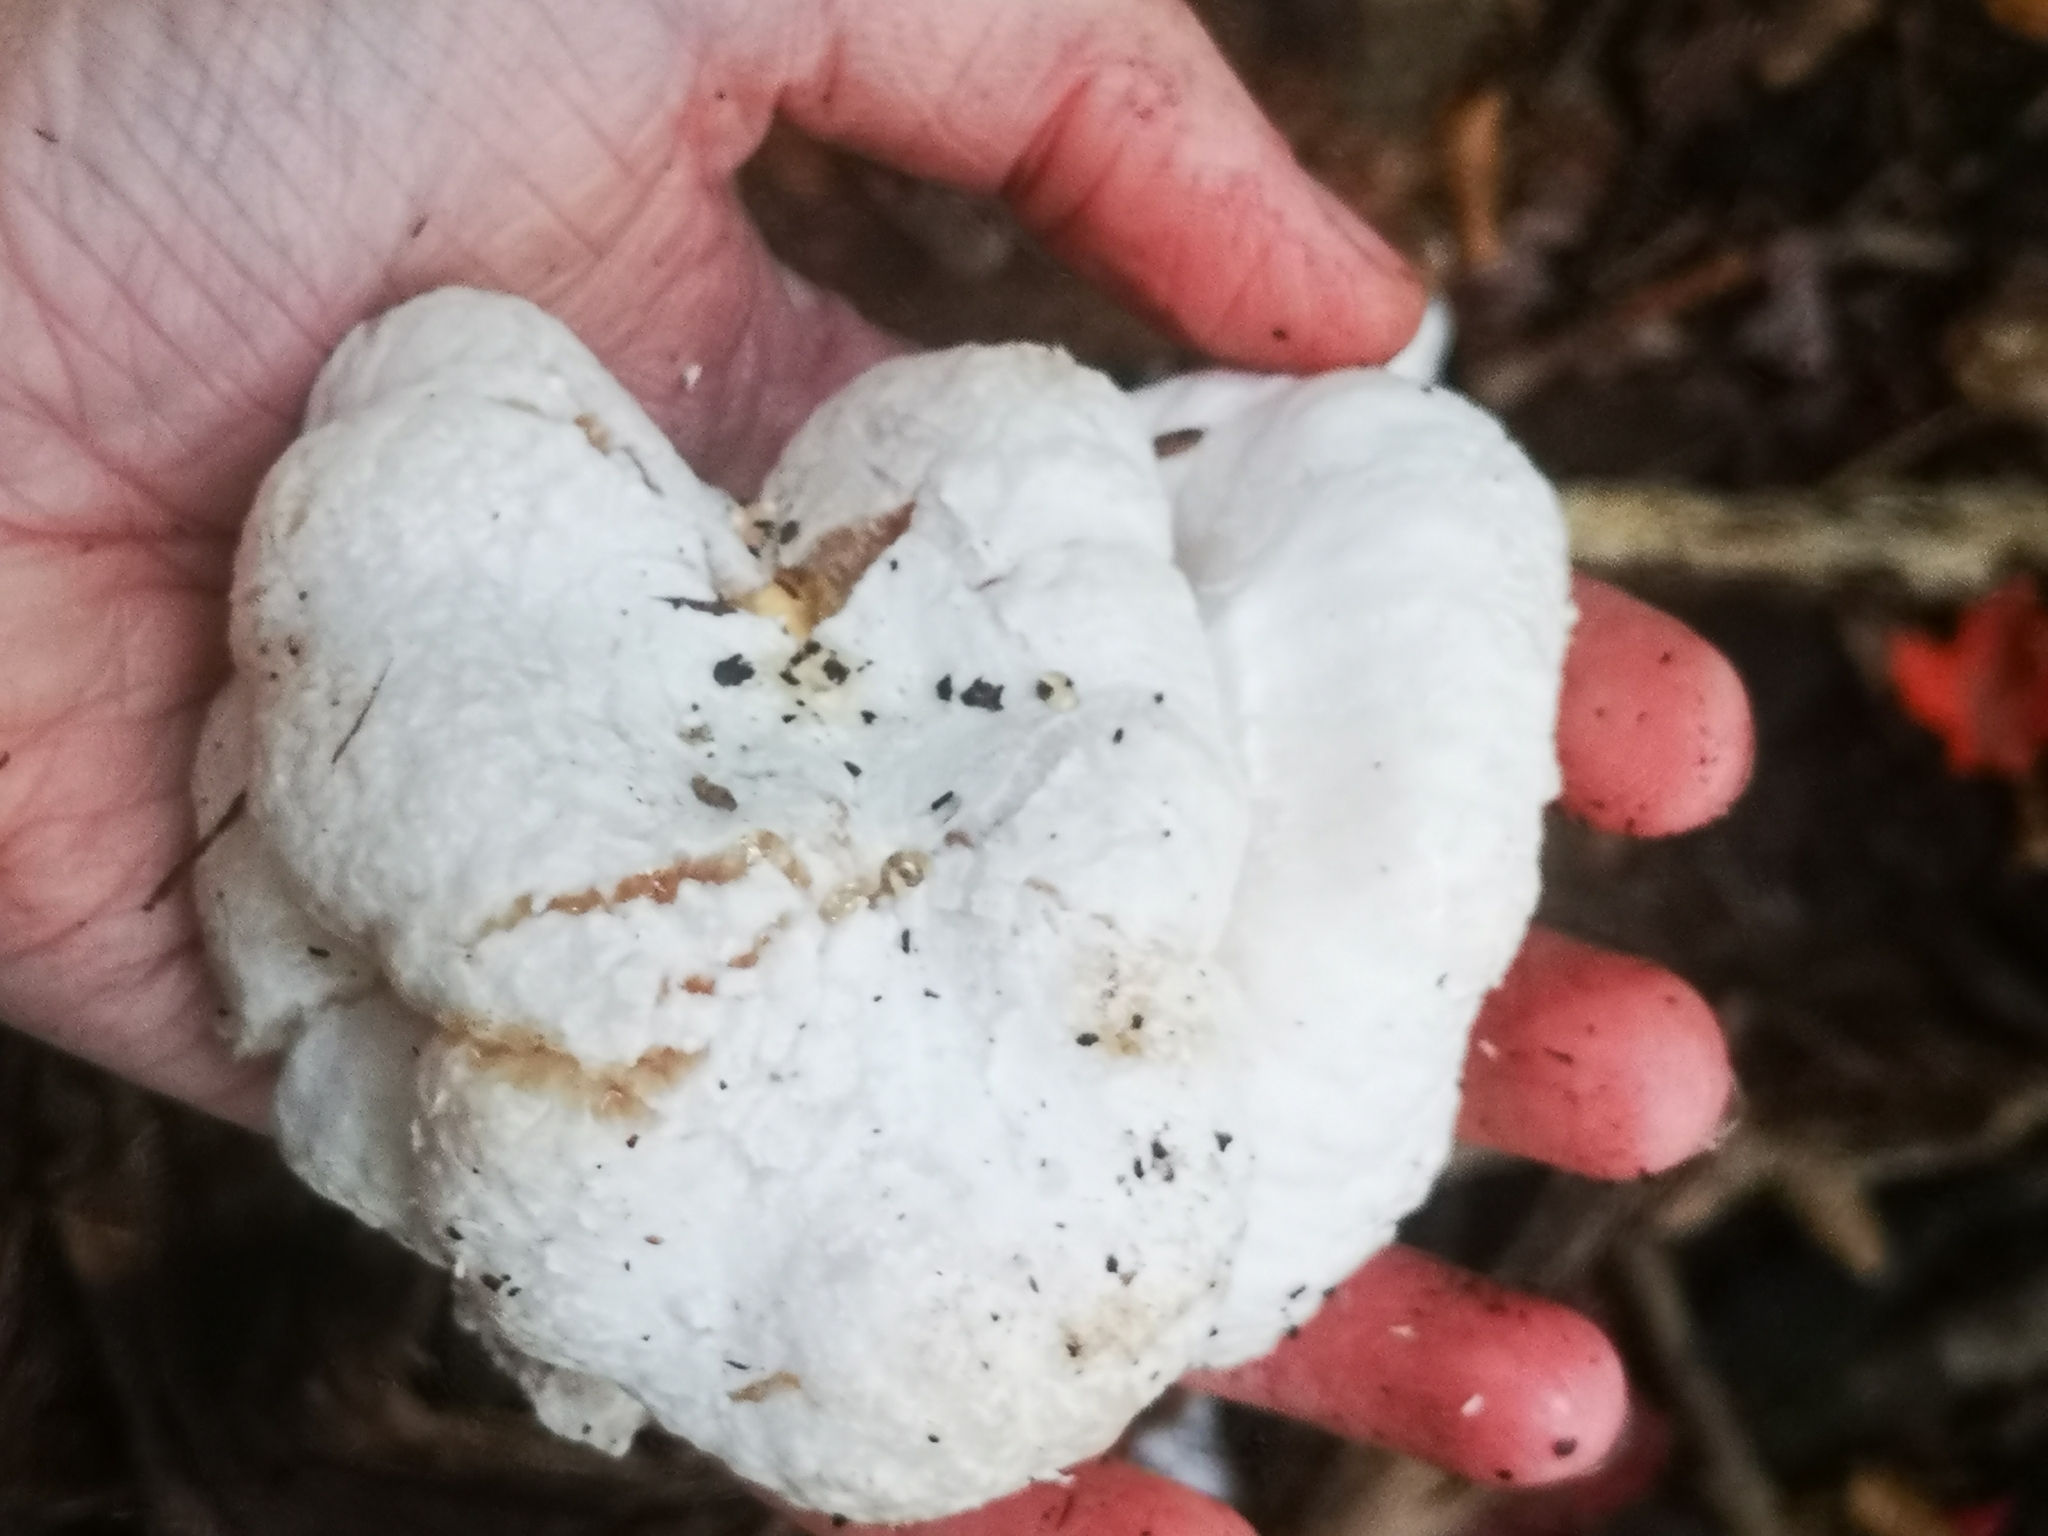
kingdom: Fungi
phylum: Basidiomycota
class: Agaricomycetes
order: Agaricales
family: Entolomataceae
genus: Entoloma
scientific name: Entoloma abortivum
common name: Aborted entoloma
